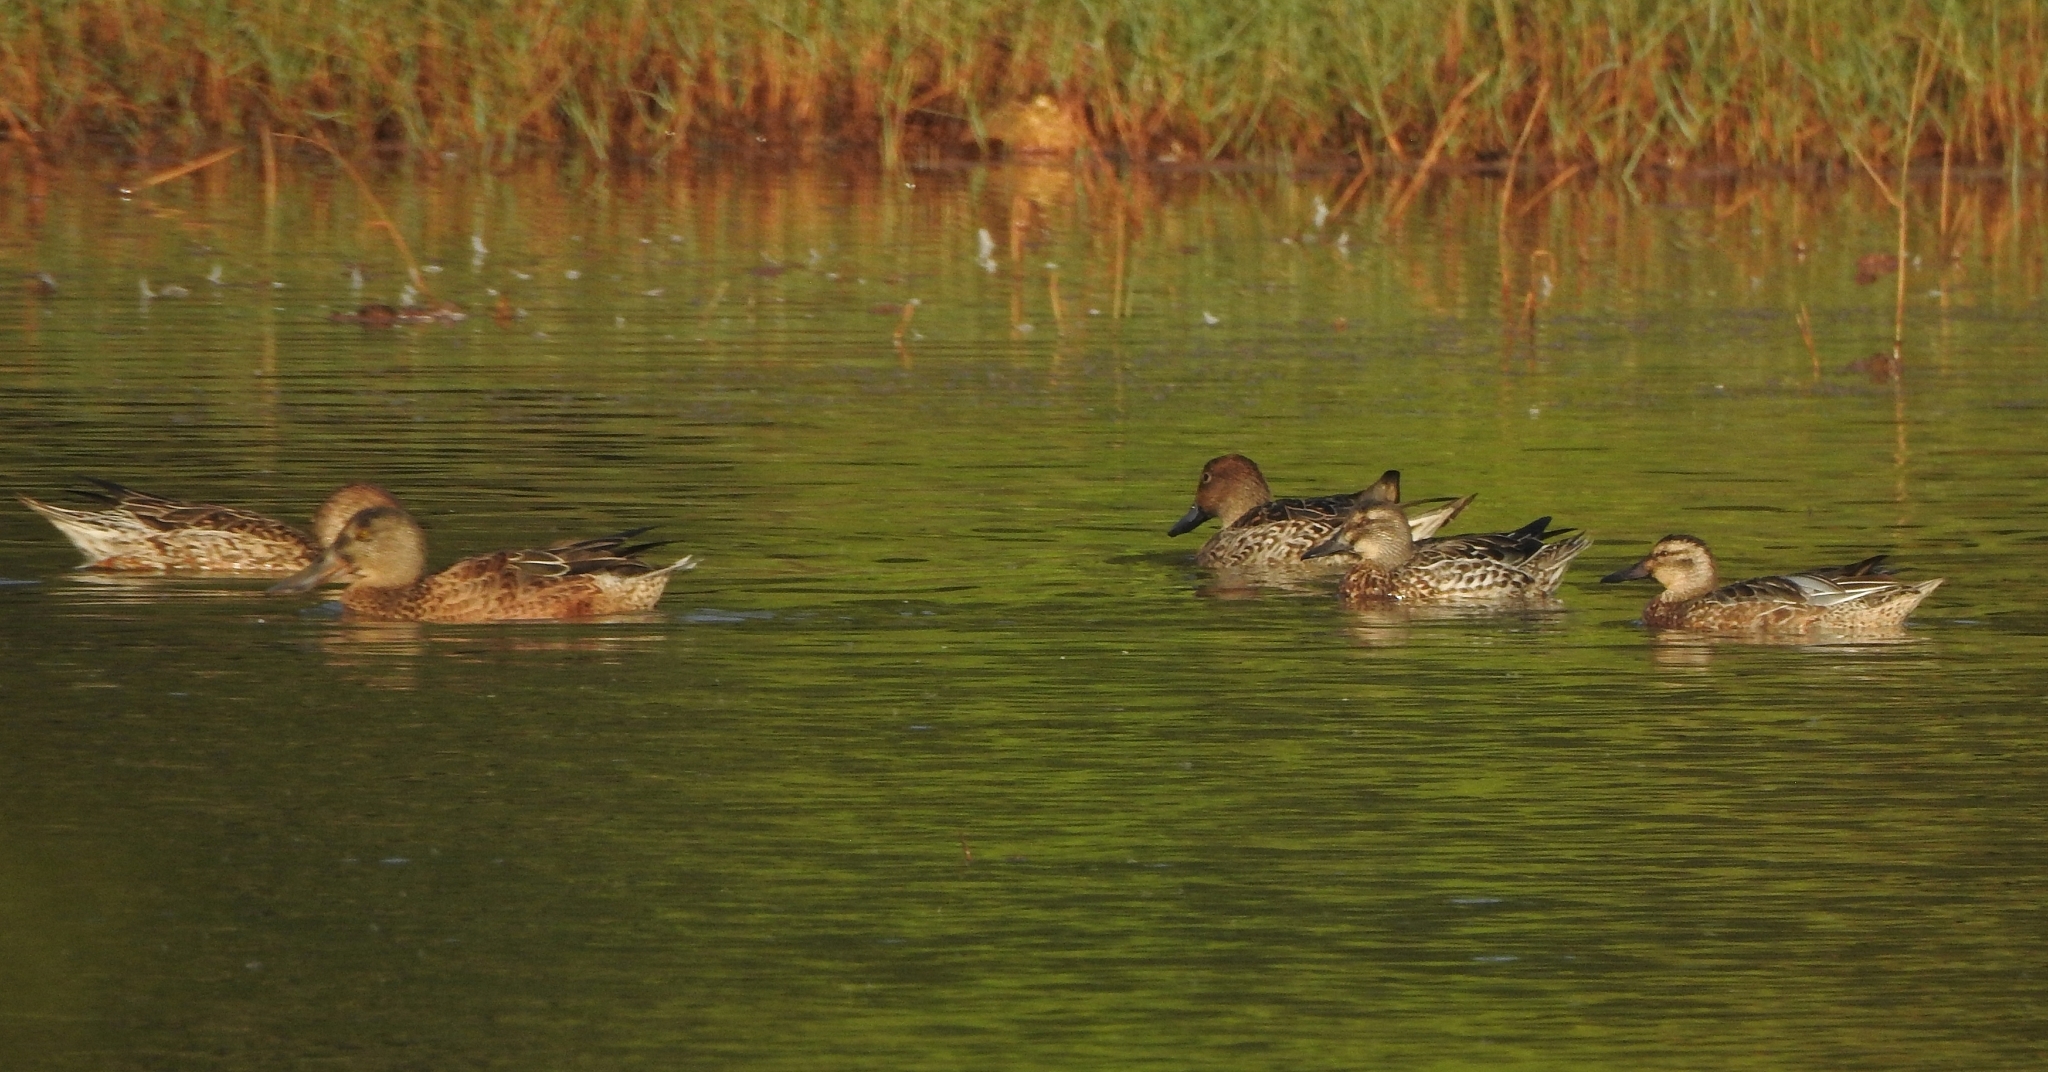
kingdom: Animalia
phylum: Chordata
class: Aves
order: Anseriformes
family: Anatidae
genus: Spatula
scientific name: Spatula querquedula
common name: Garganey
